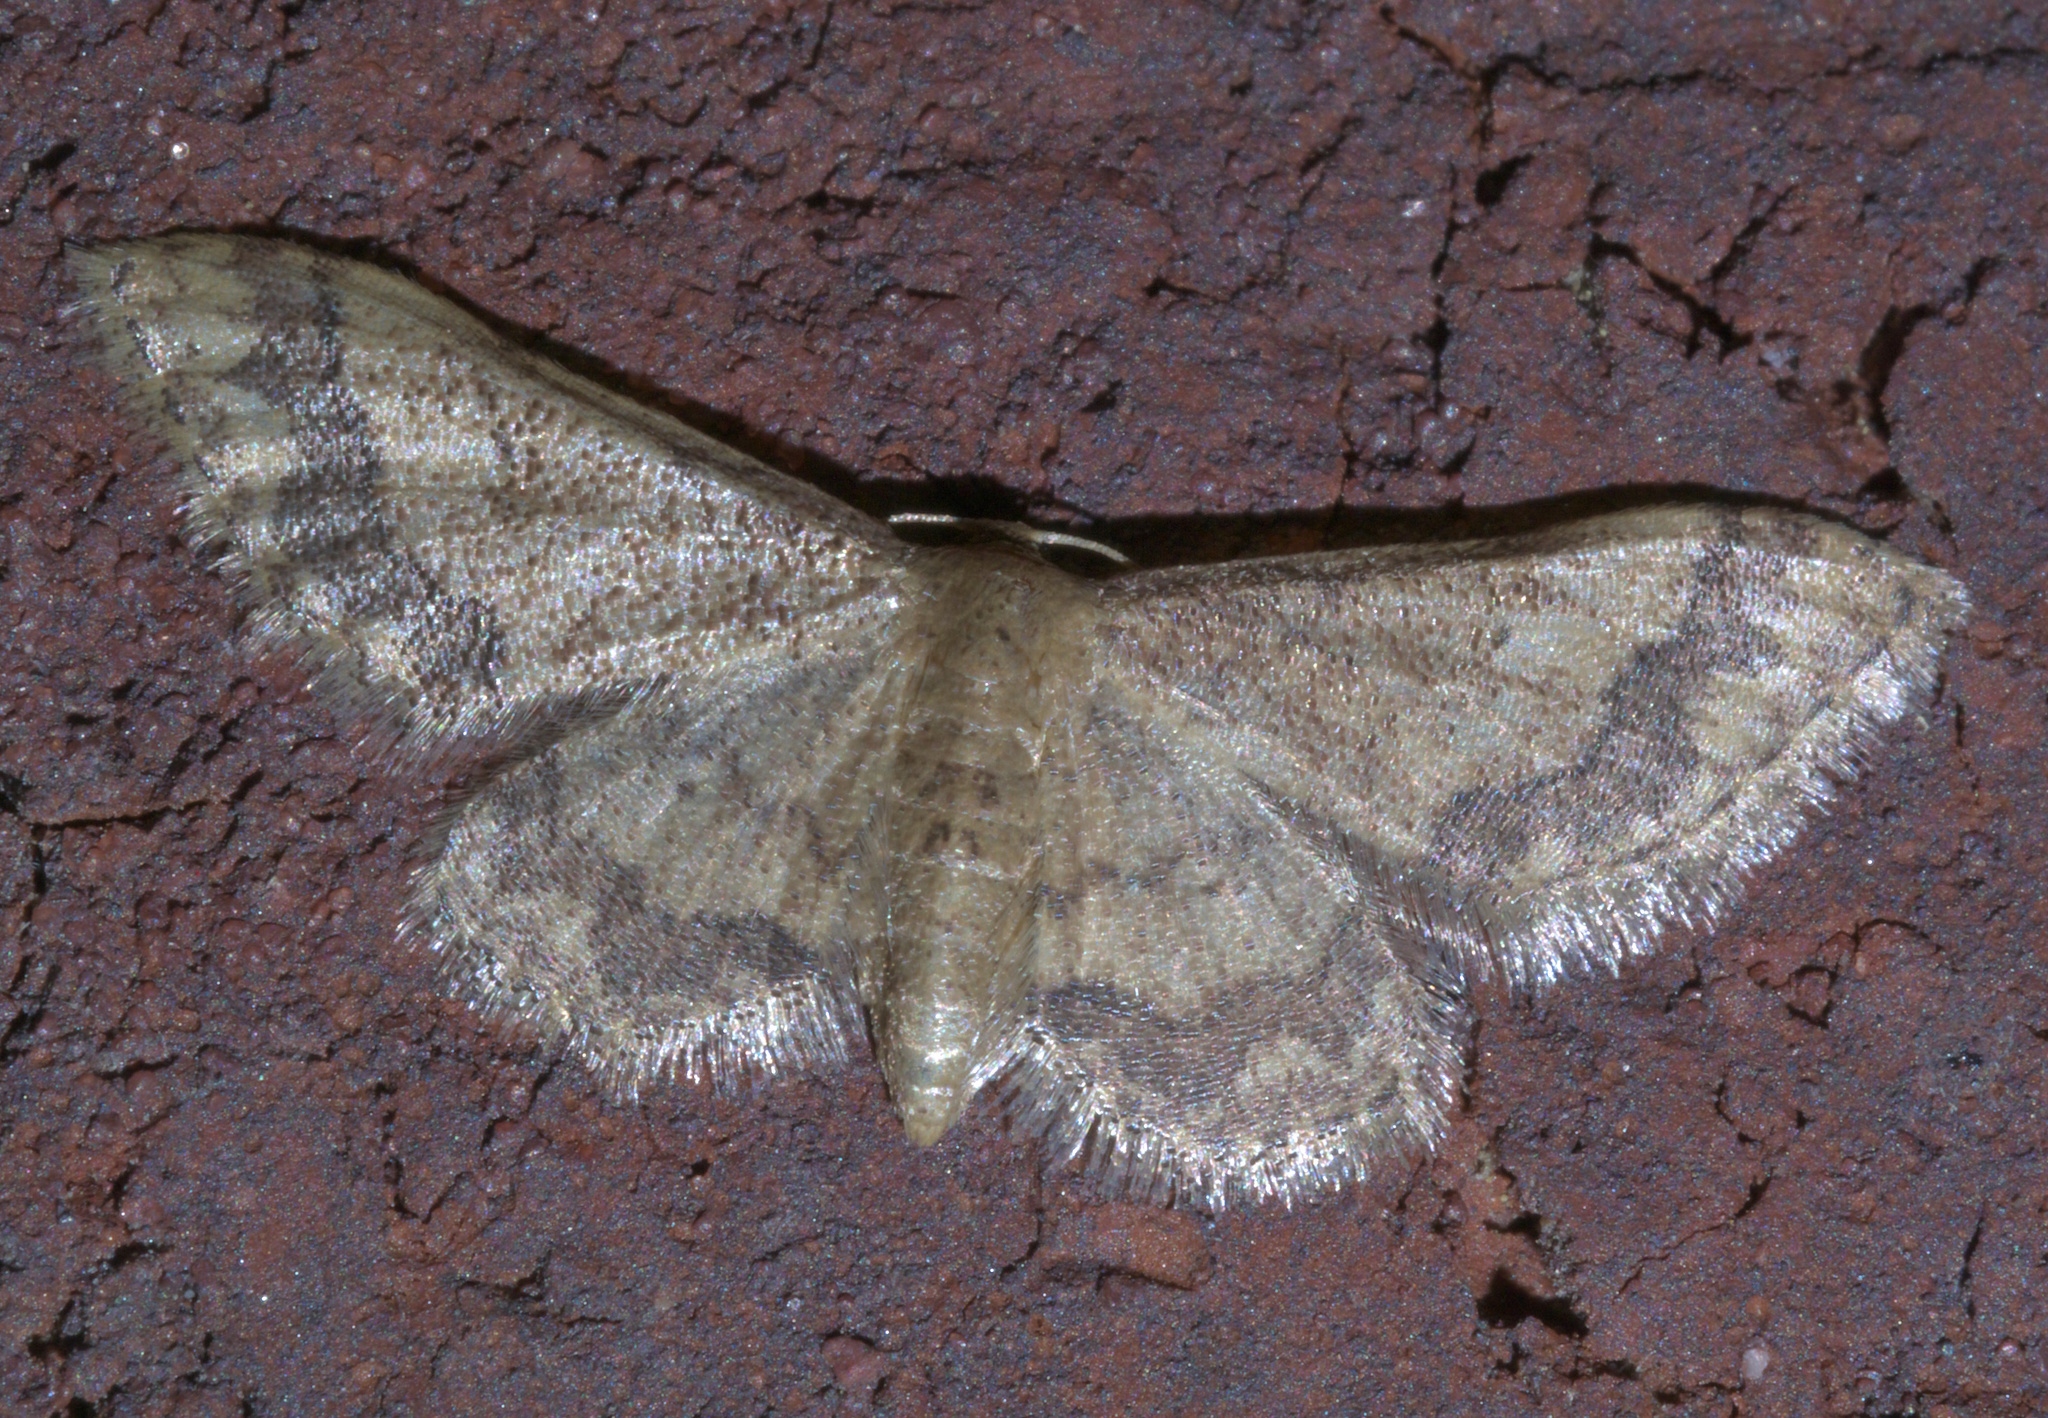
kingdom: Animalia
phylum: Arthropoda
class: Insecta
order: Lepidoptera
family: Geometridae
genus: Idaea
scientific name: Idaea celtima
